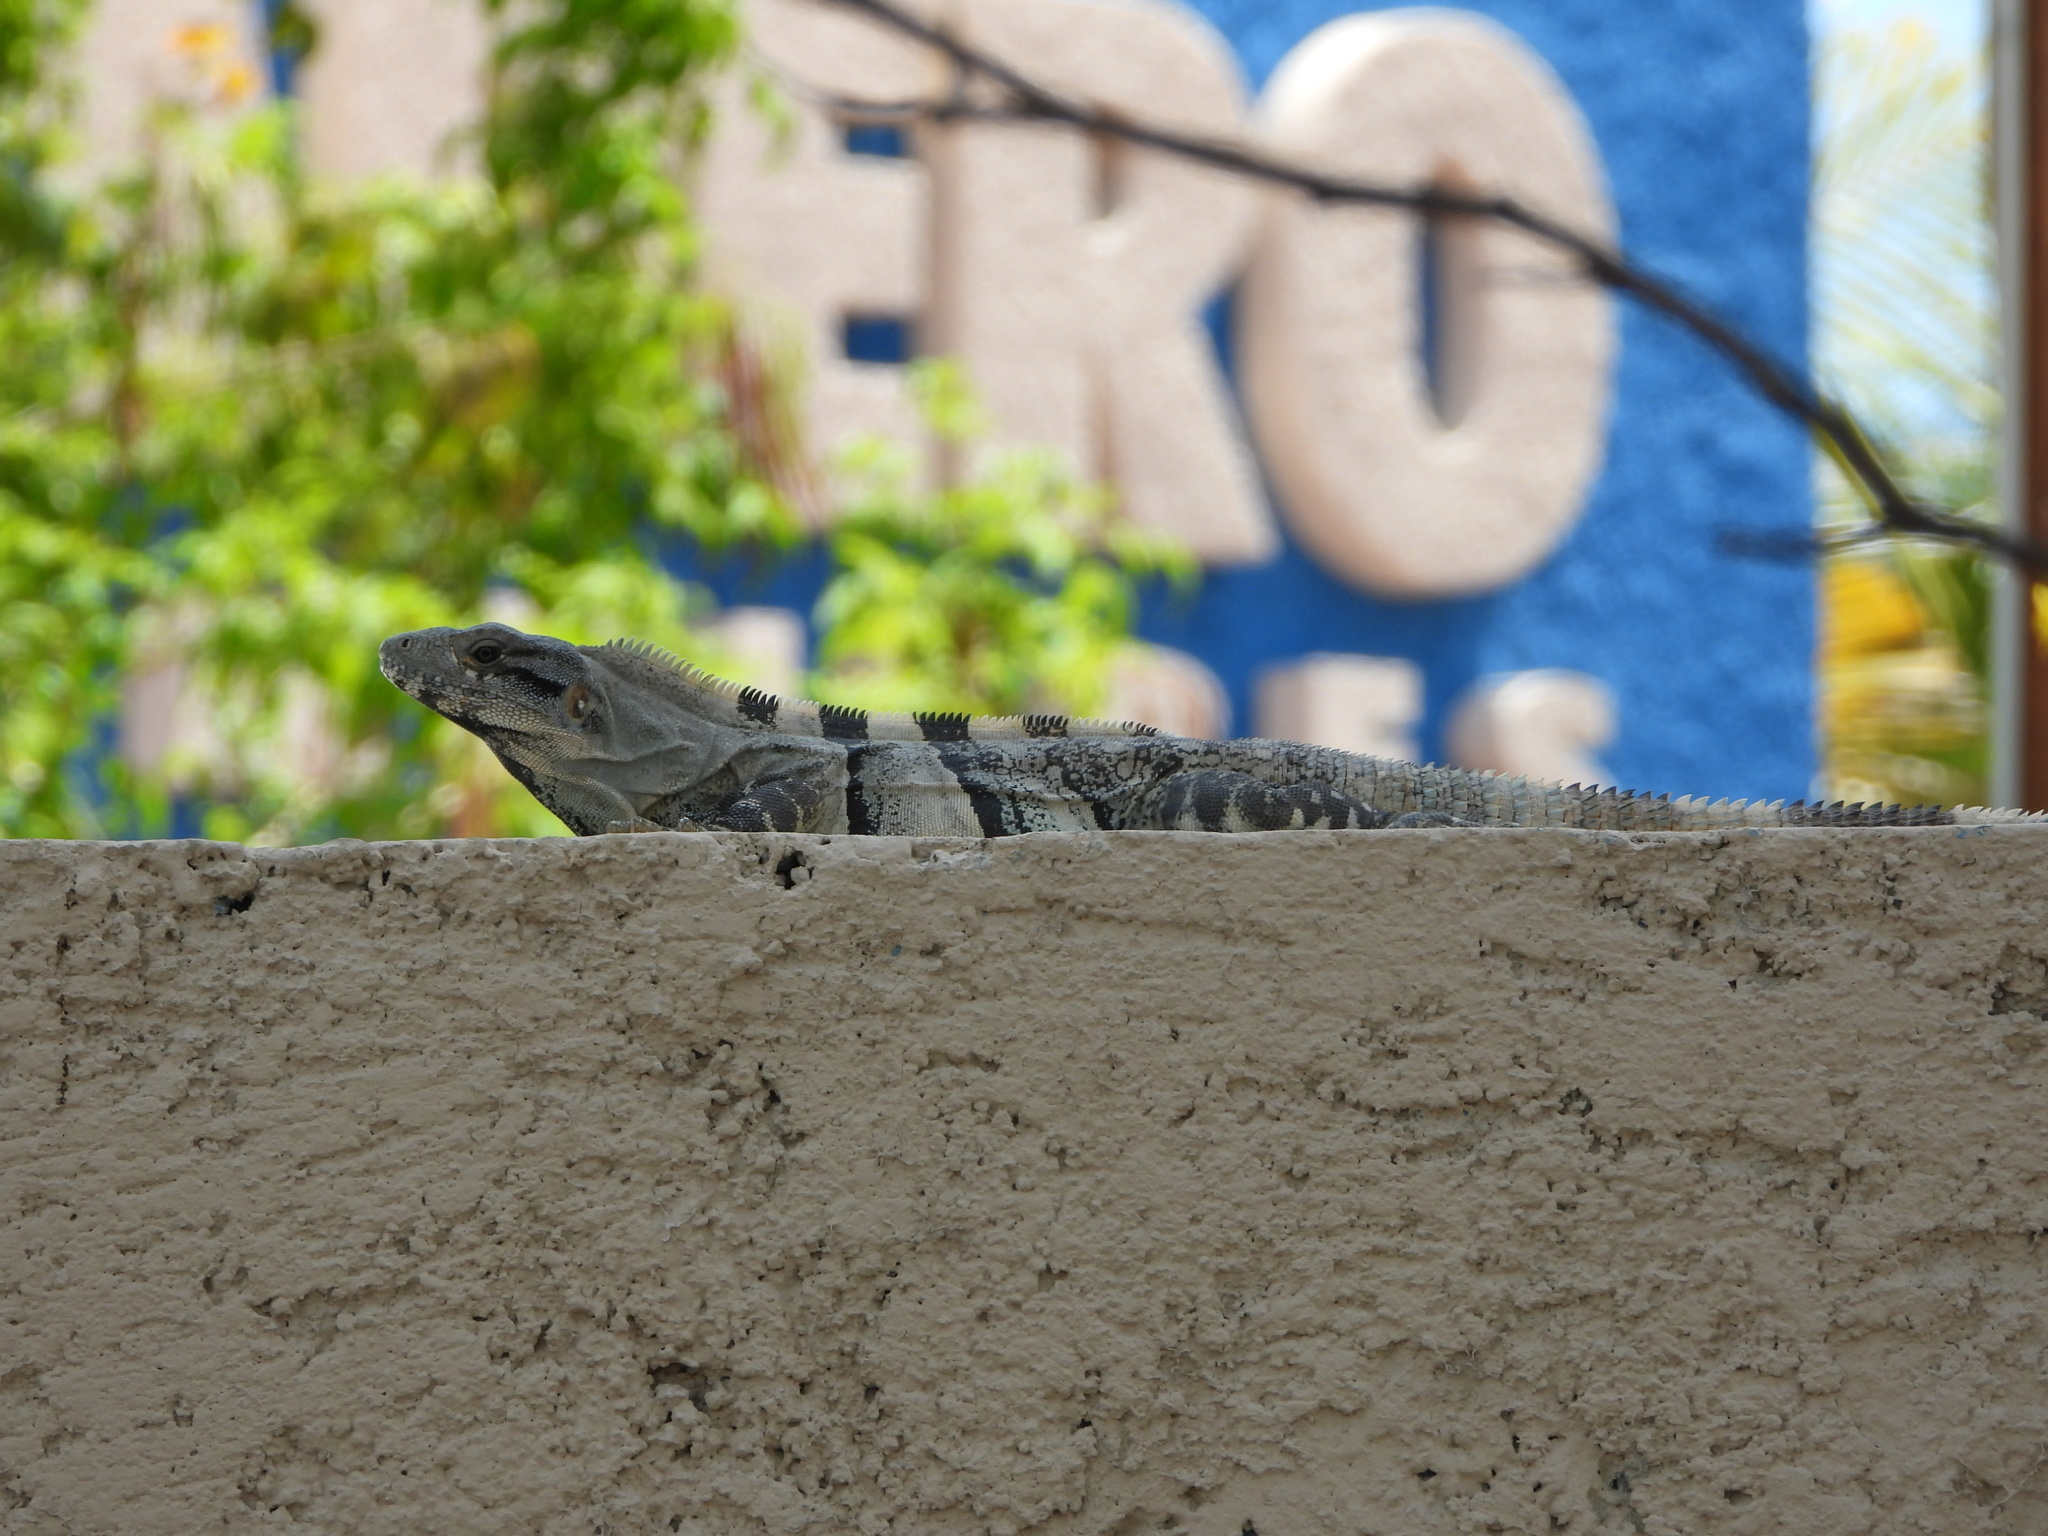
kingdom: Animalia
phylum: Chordata
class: Squamata
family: Iguanidae
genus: Ctenosaura
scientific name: Ctenosaura similis
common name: Black spiny-tailed iguana
